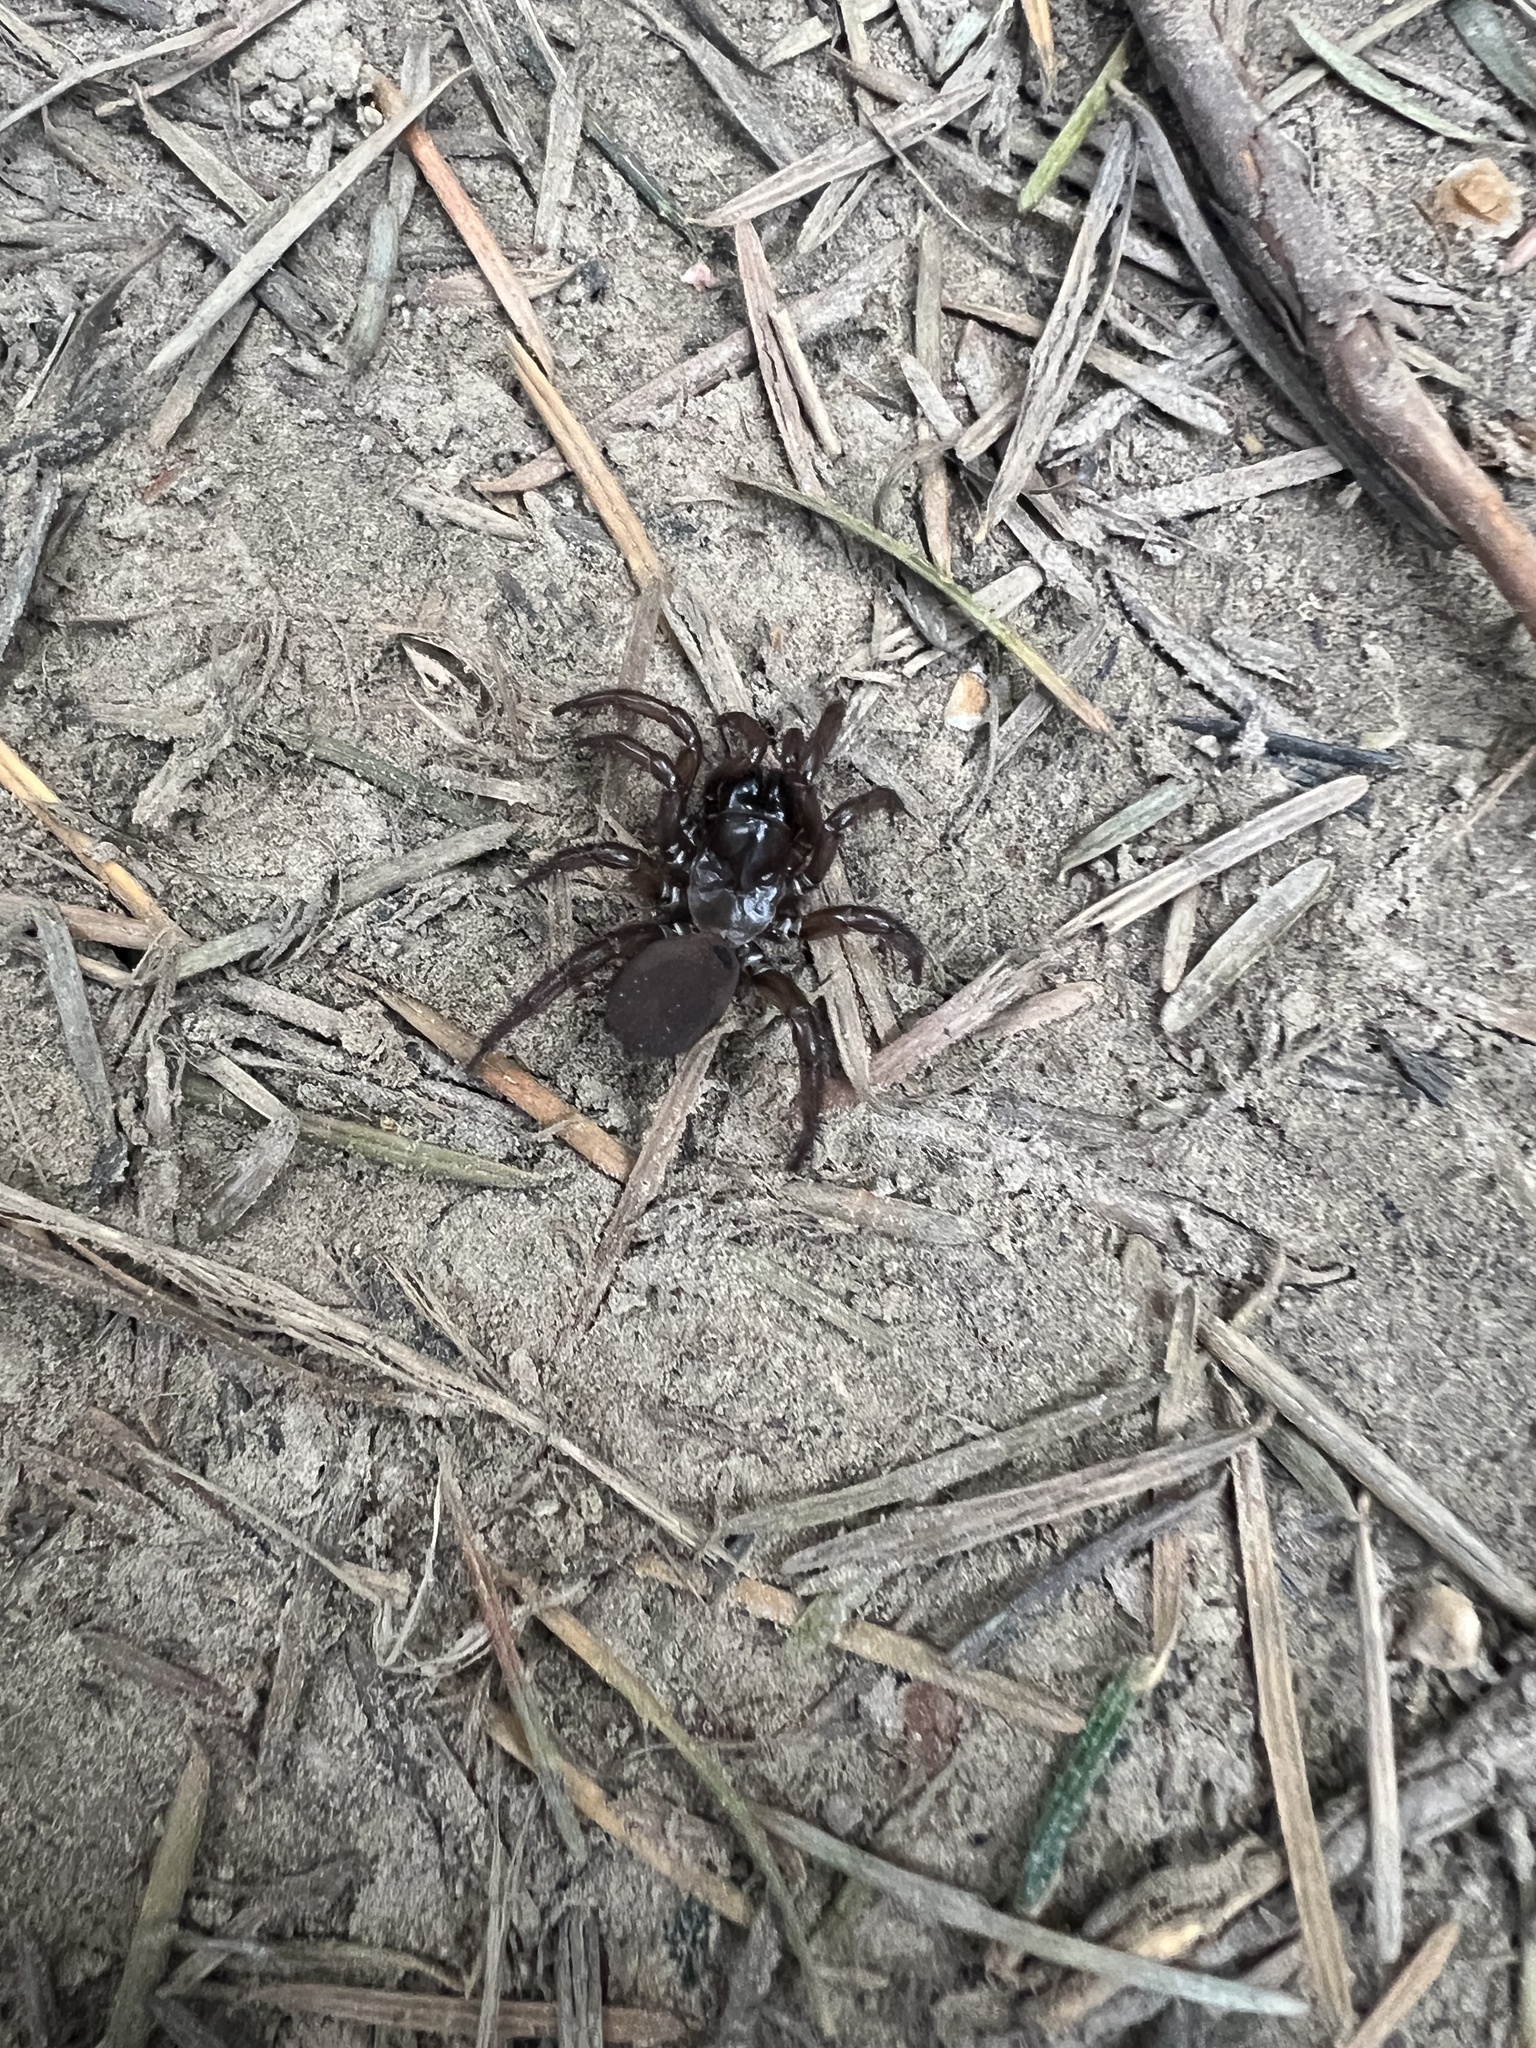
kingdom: Animalia
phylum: Arthropoda
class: Arachnida
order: Araneae
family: Antrodiaetidae
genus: Antrodiaetus
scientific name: Antrodiaetus pacificus
